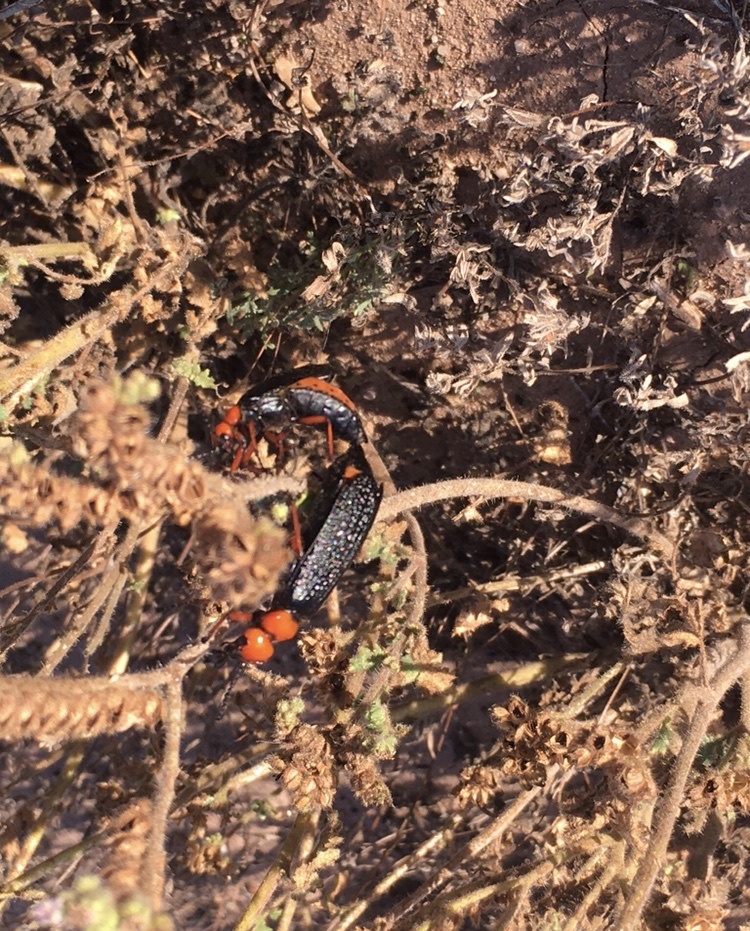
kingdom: Animalia
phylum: Arthropoda
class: Insecta
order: Coleoptera
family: Meloidae
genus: Lytta
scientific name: Lytta magister
